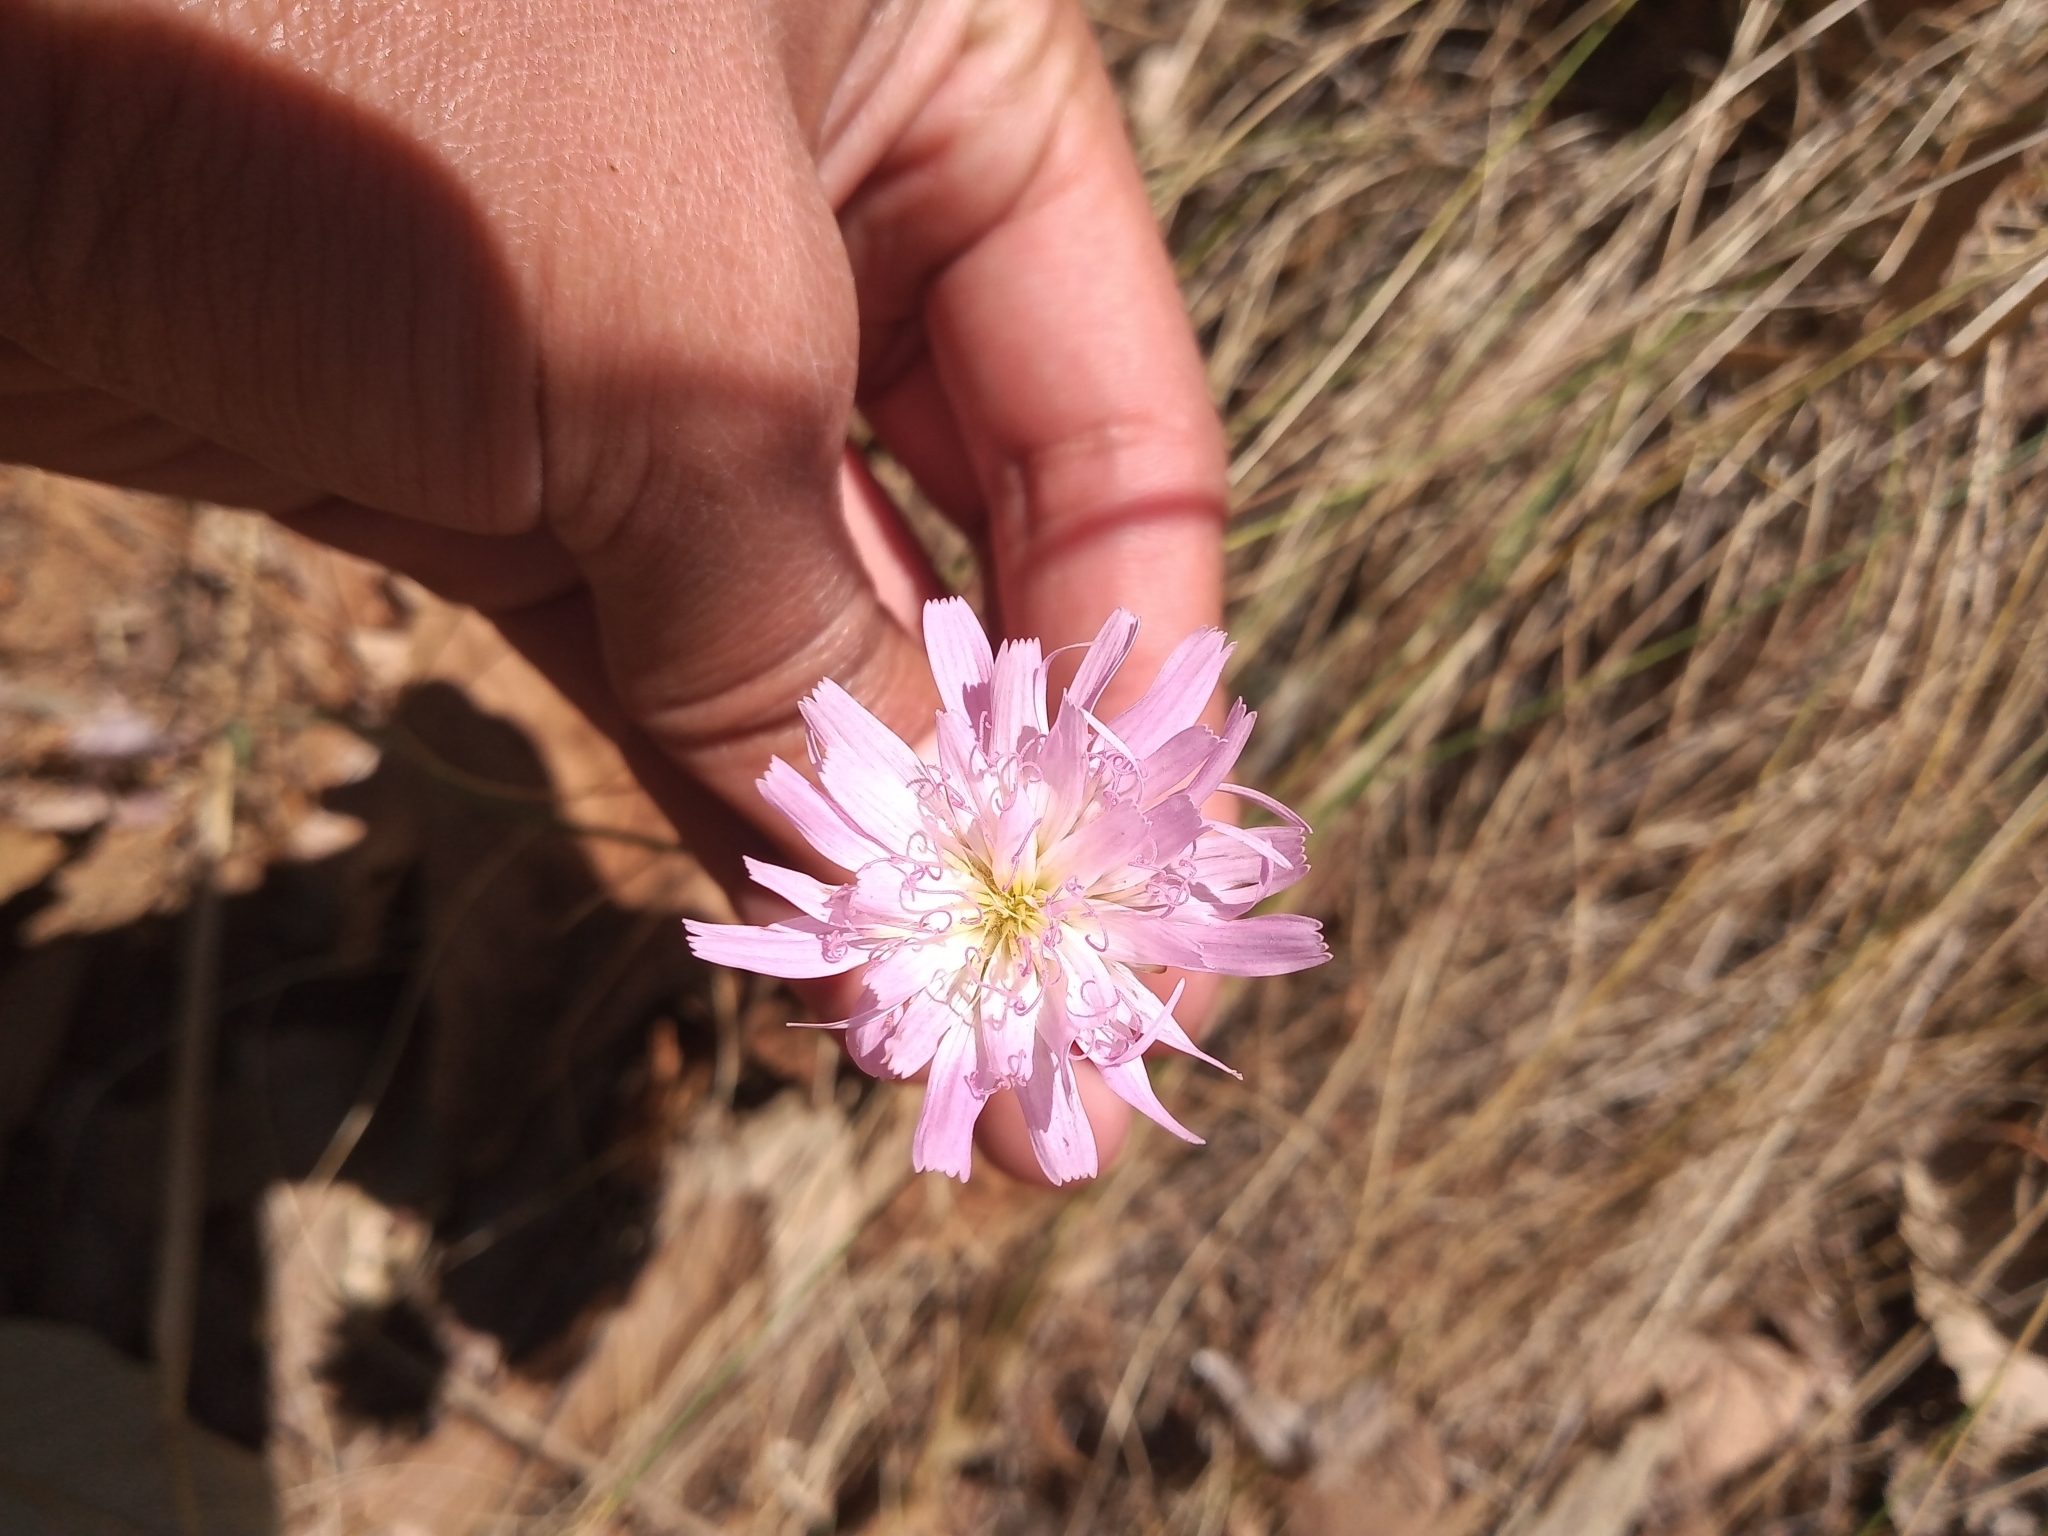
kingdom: Plantae
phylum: Tracheophyta
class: Magnoliopsida
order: Asterales
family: Asteraceae
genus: Pinaropappus
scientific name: Pinaropappus roseus
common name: Rock-lettuce
